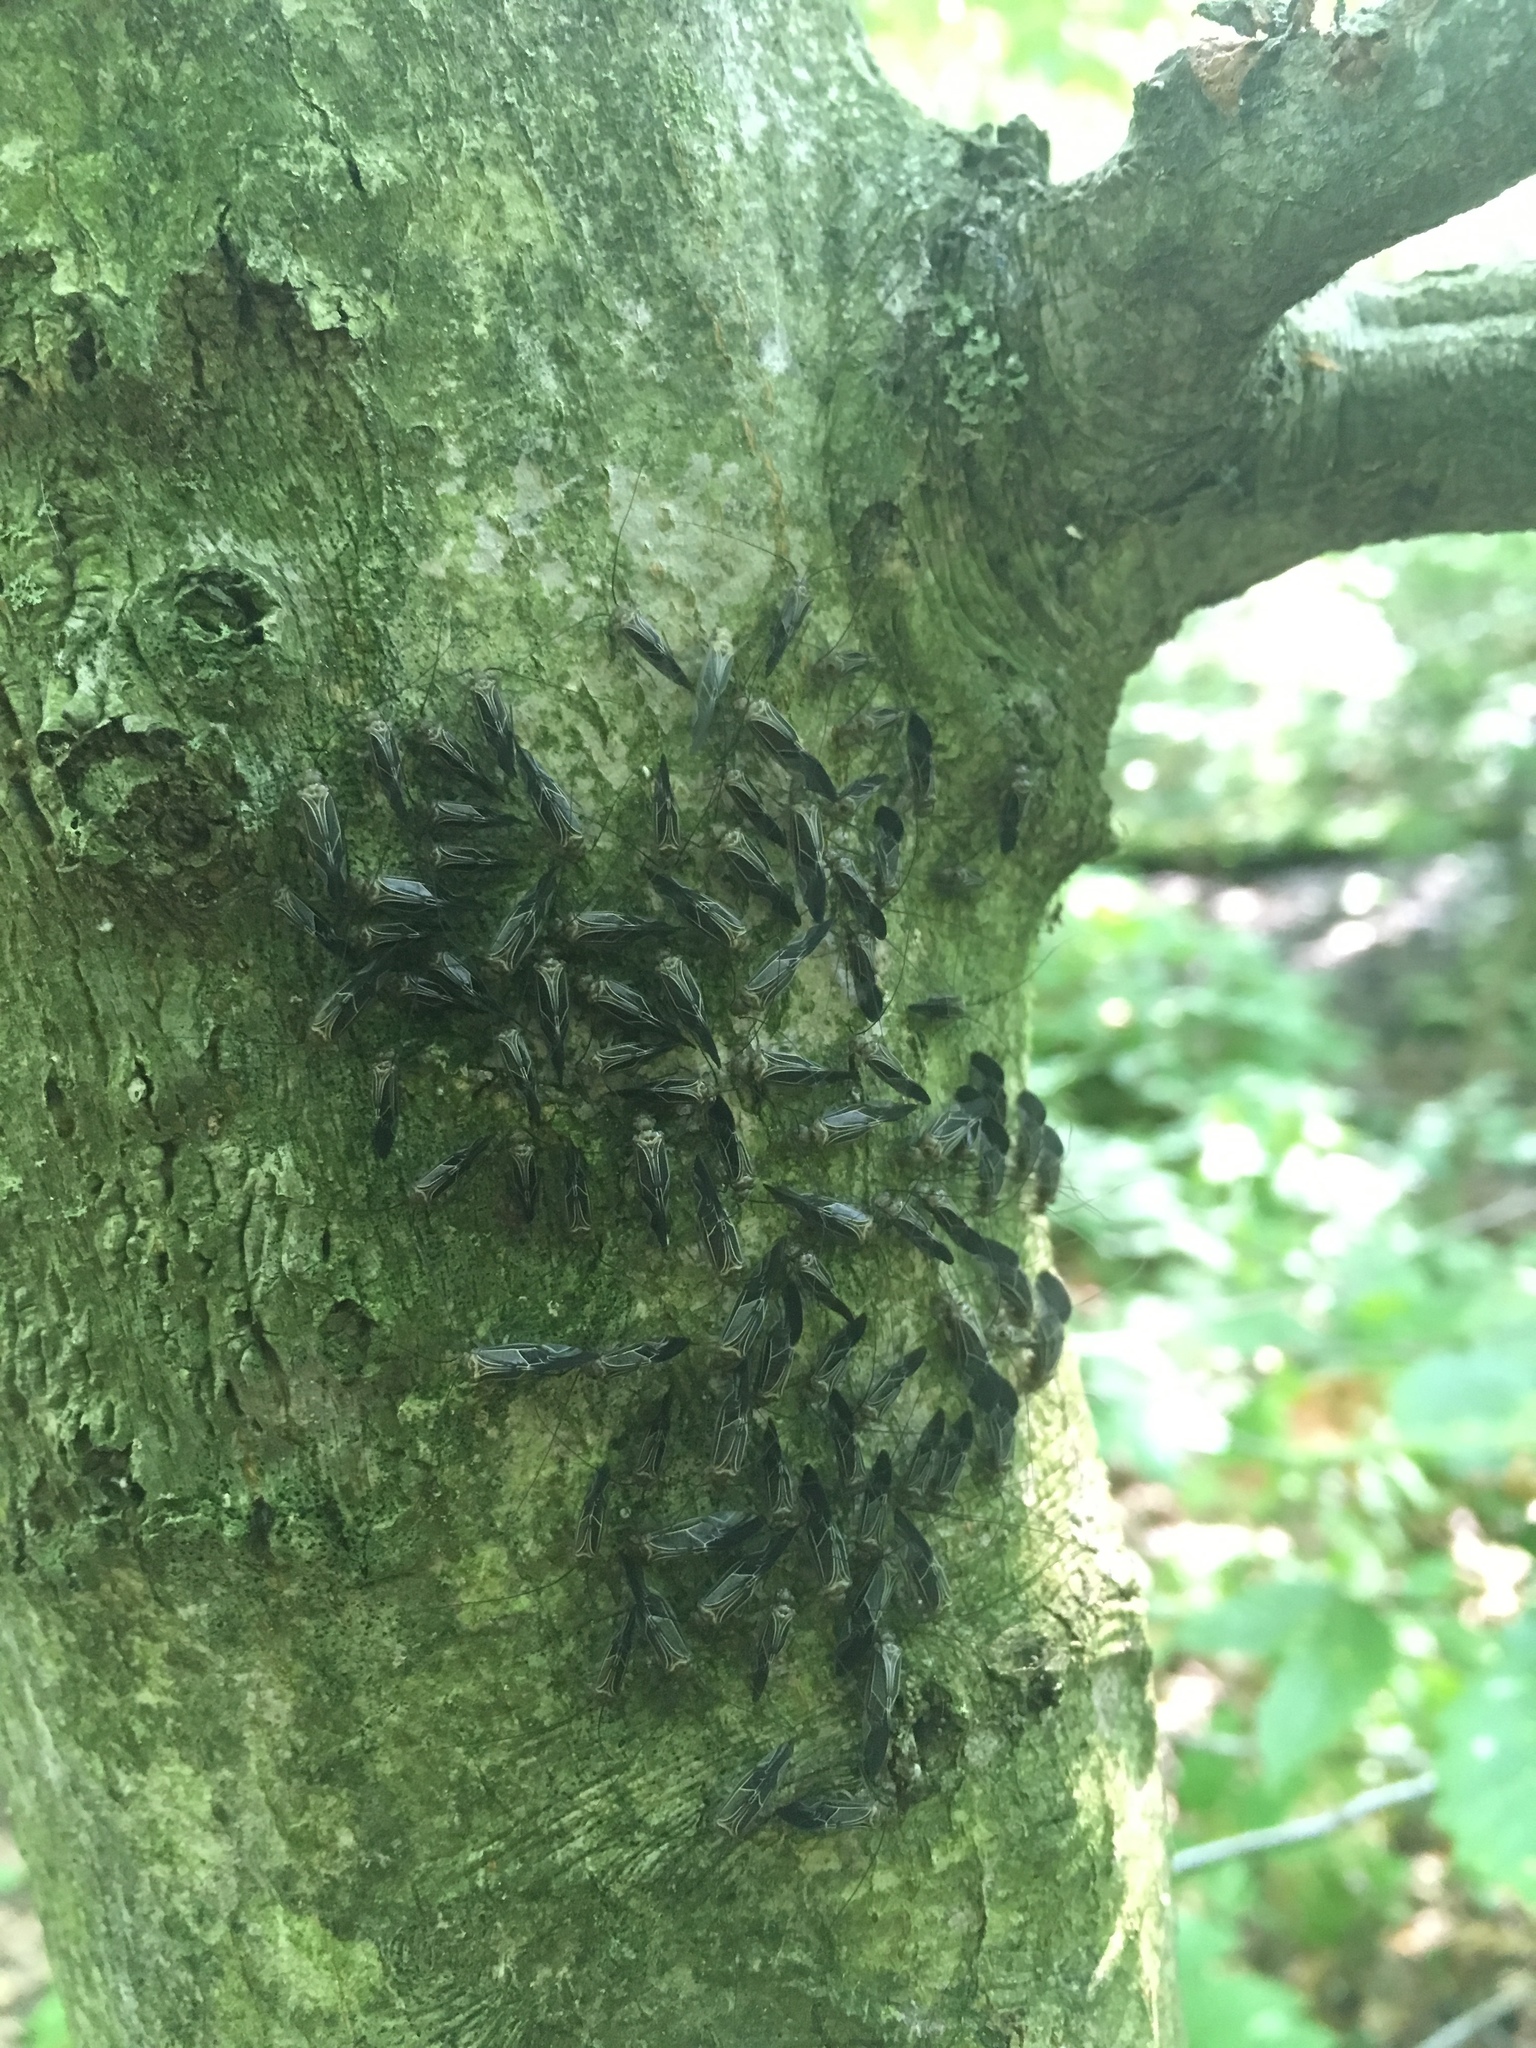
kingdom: Animalia
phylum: Arthropoda
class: Insecta
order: Psocodea
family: Psocidae
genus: Cerastipsocus
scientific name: Cerastipsocus venosus
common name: Tree cattle
